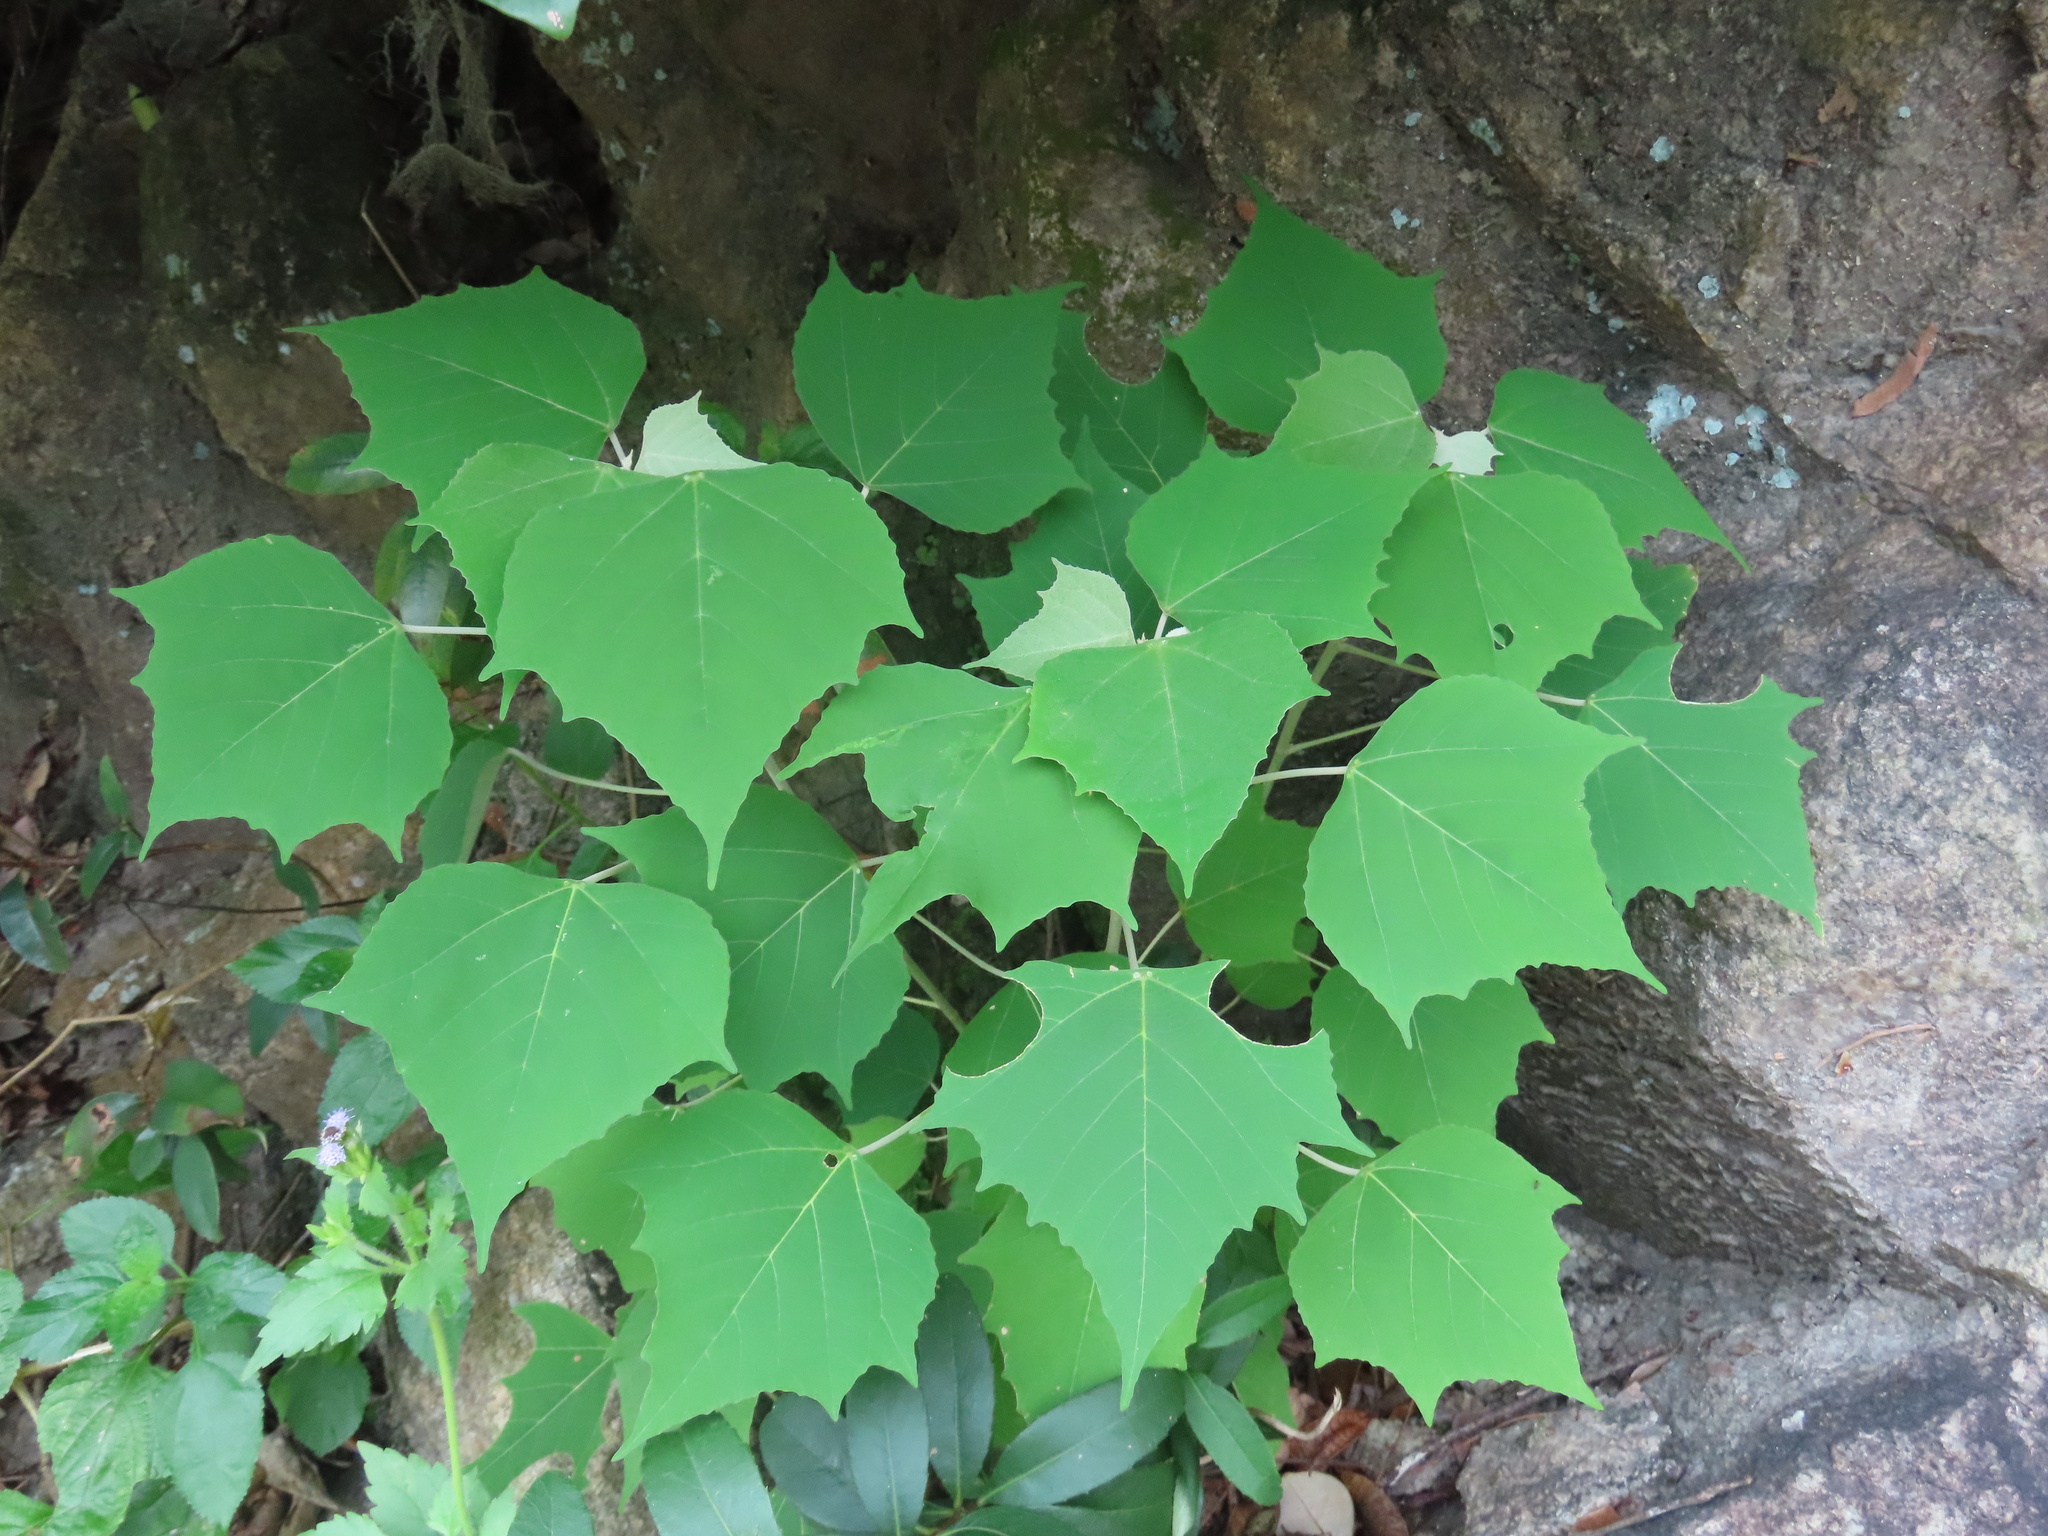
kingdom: Plantae
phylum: Tracheophyta
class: Magnoliopsida
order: Malpighiales
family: Euphorbiaceae
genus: Mallotus
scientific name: Mallotus paniculatus
